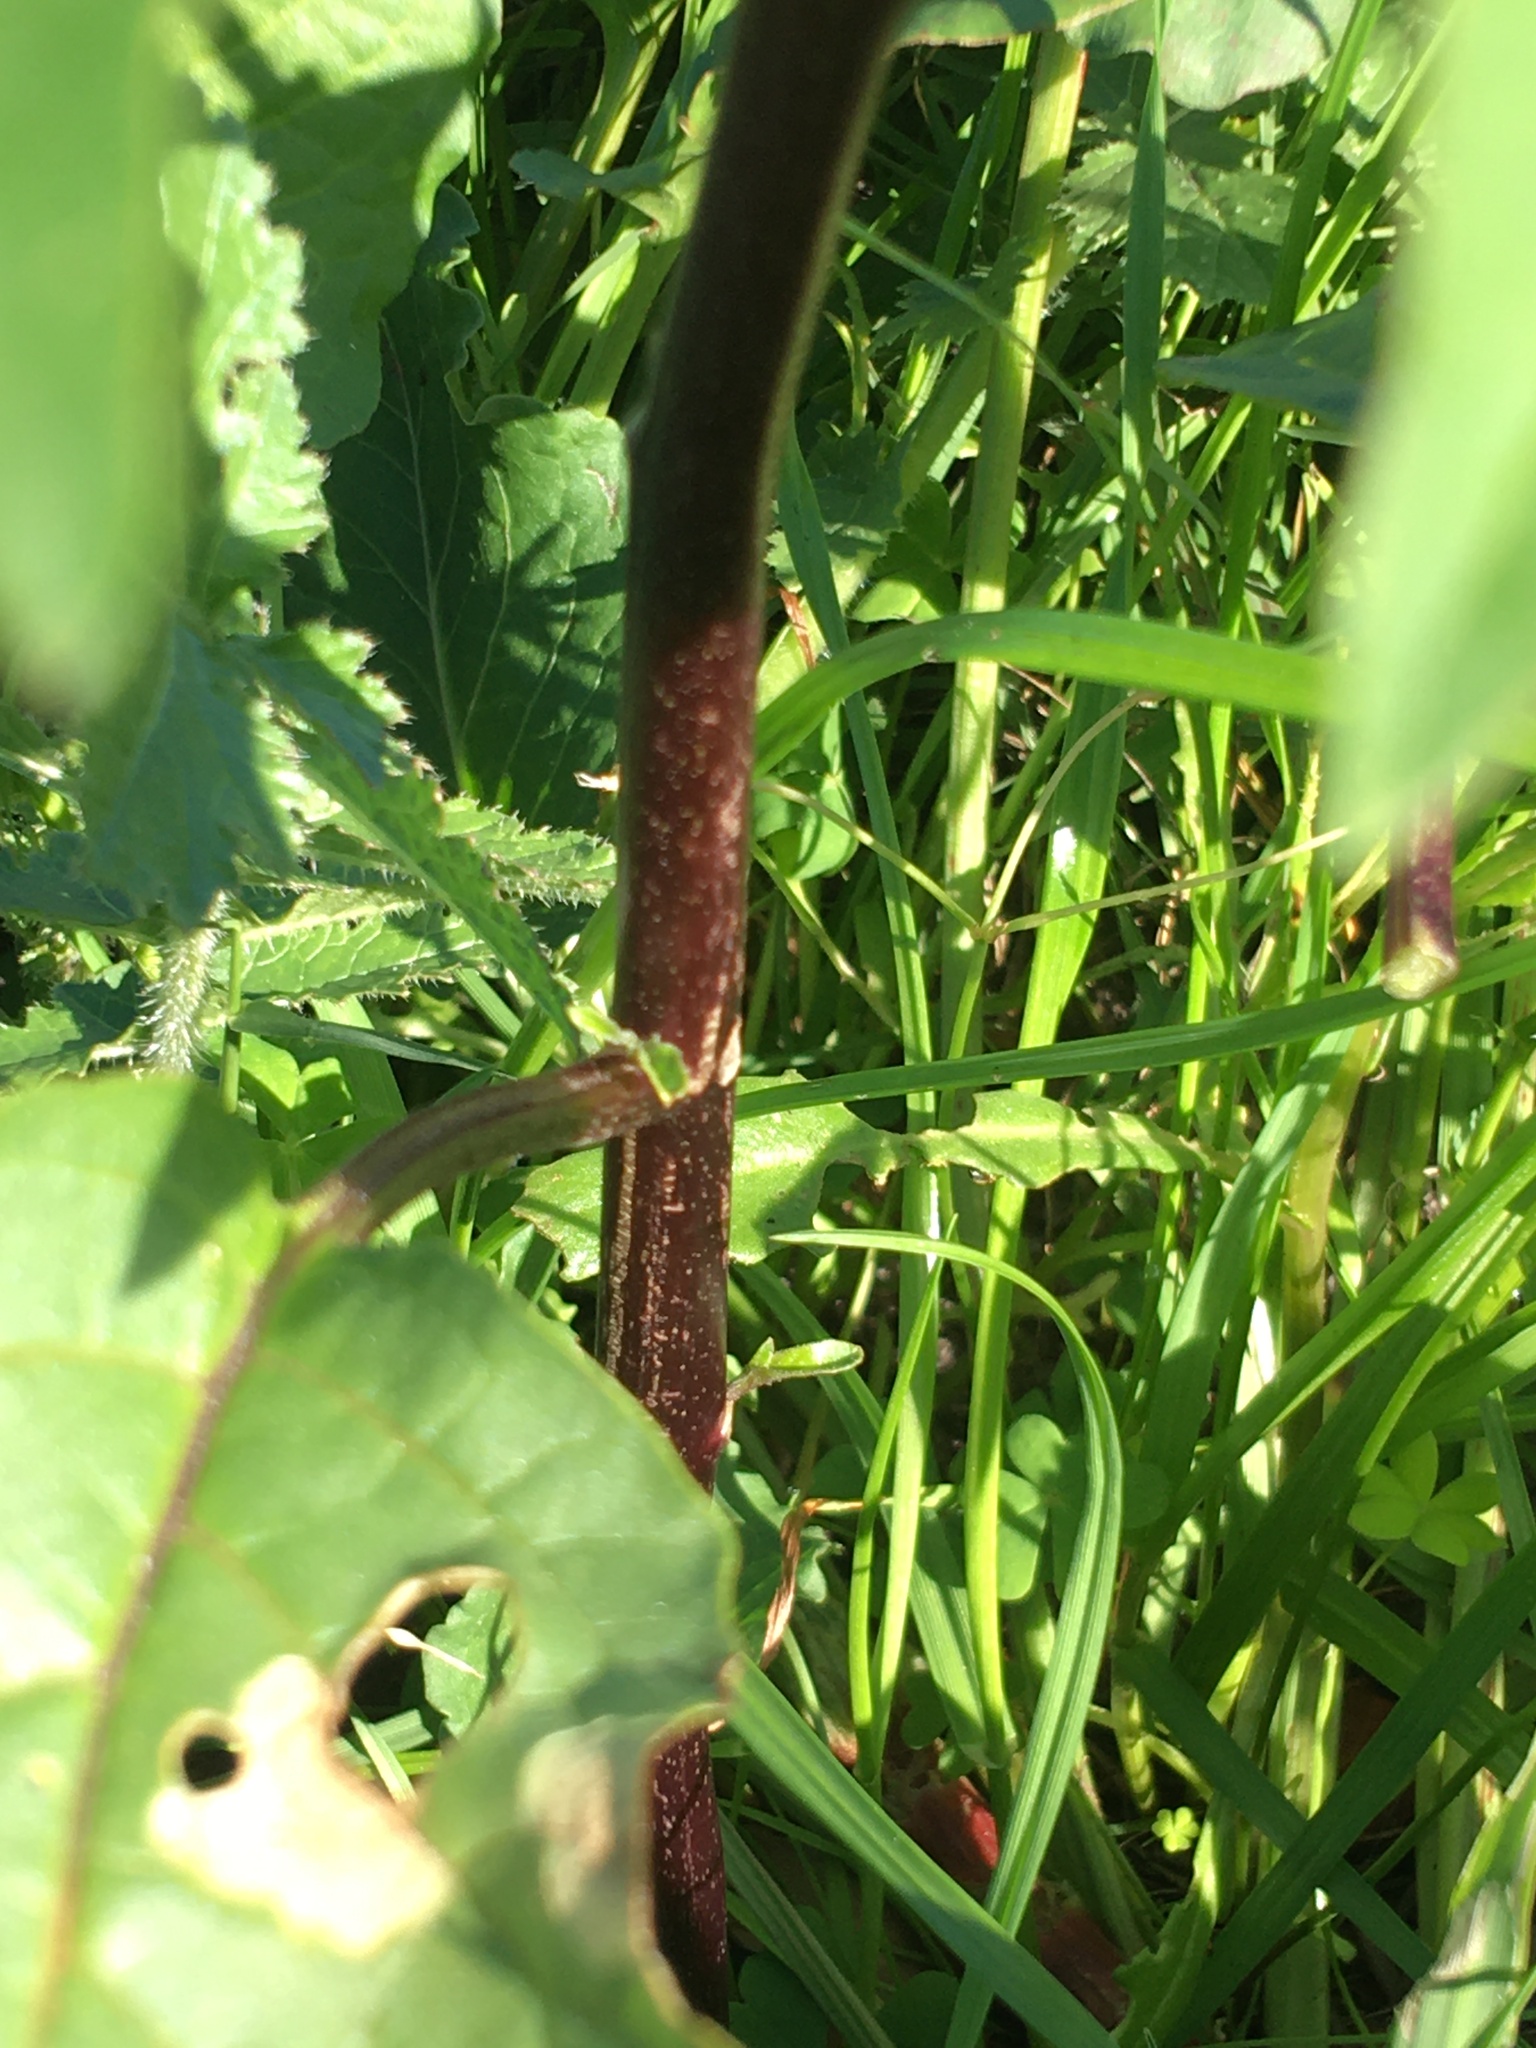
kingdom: Plantae
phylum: Tracheophyta
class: Magnoliopsida
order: Solanales
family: Solanaceae
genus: Datura
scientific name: Datura stramonium
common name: Thorn-apple
